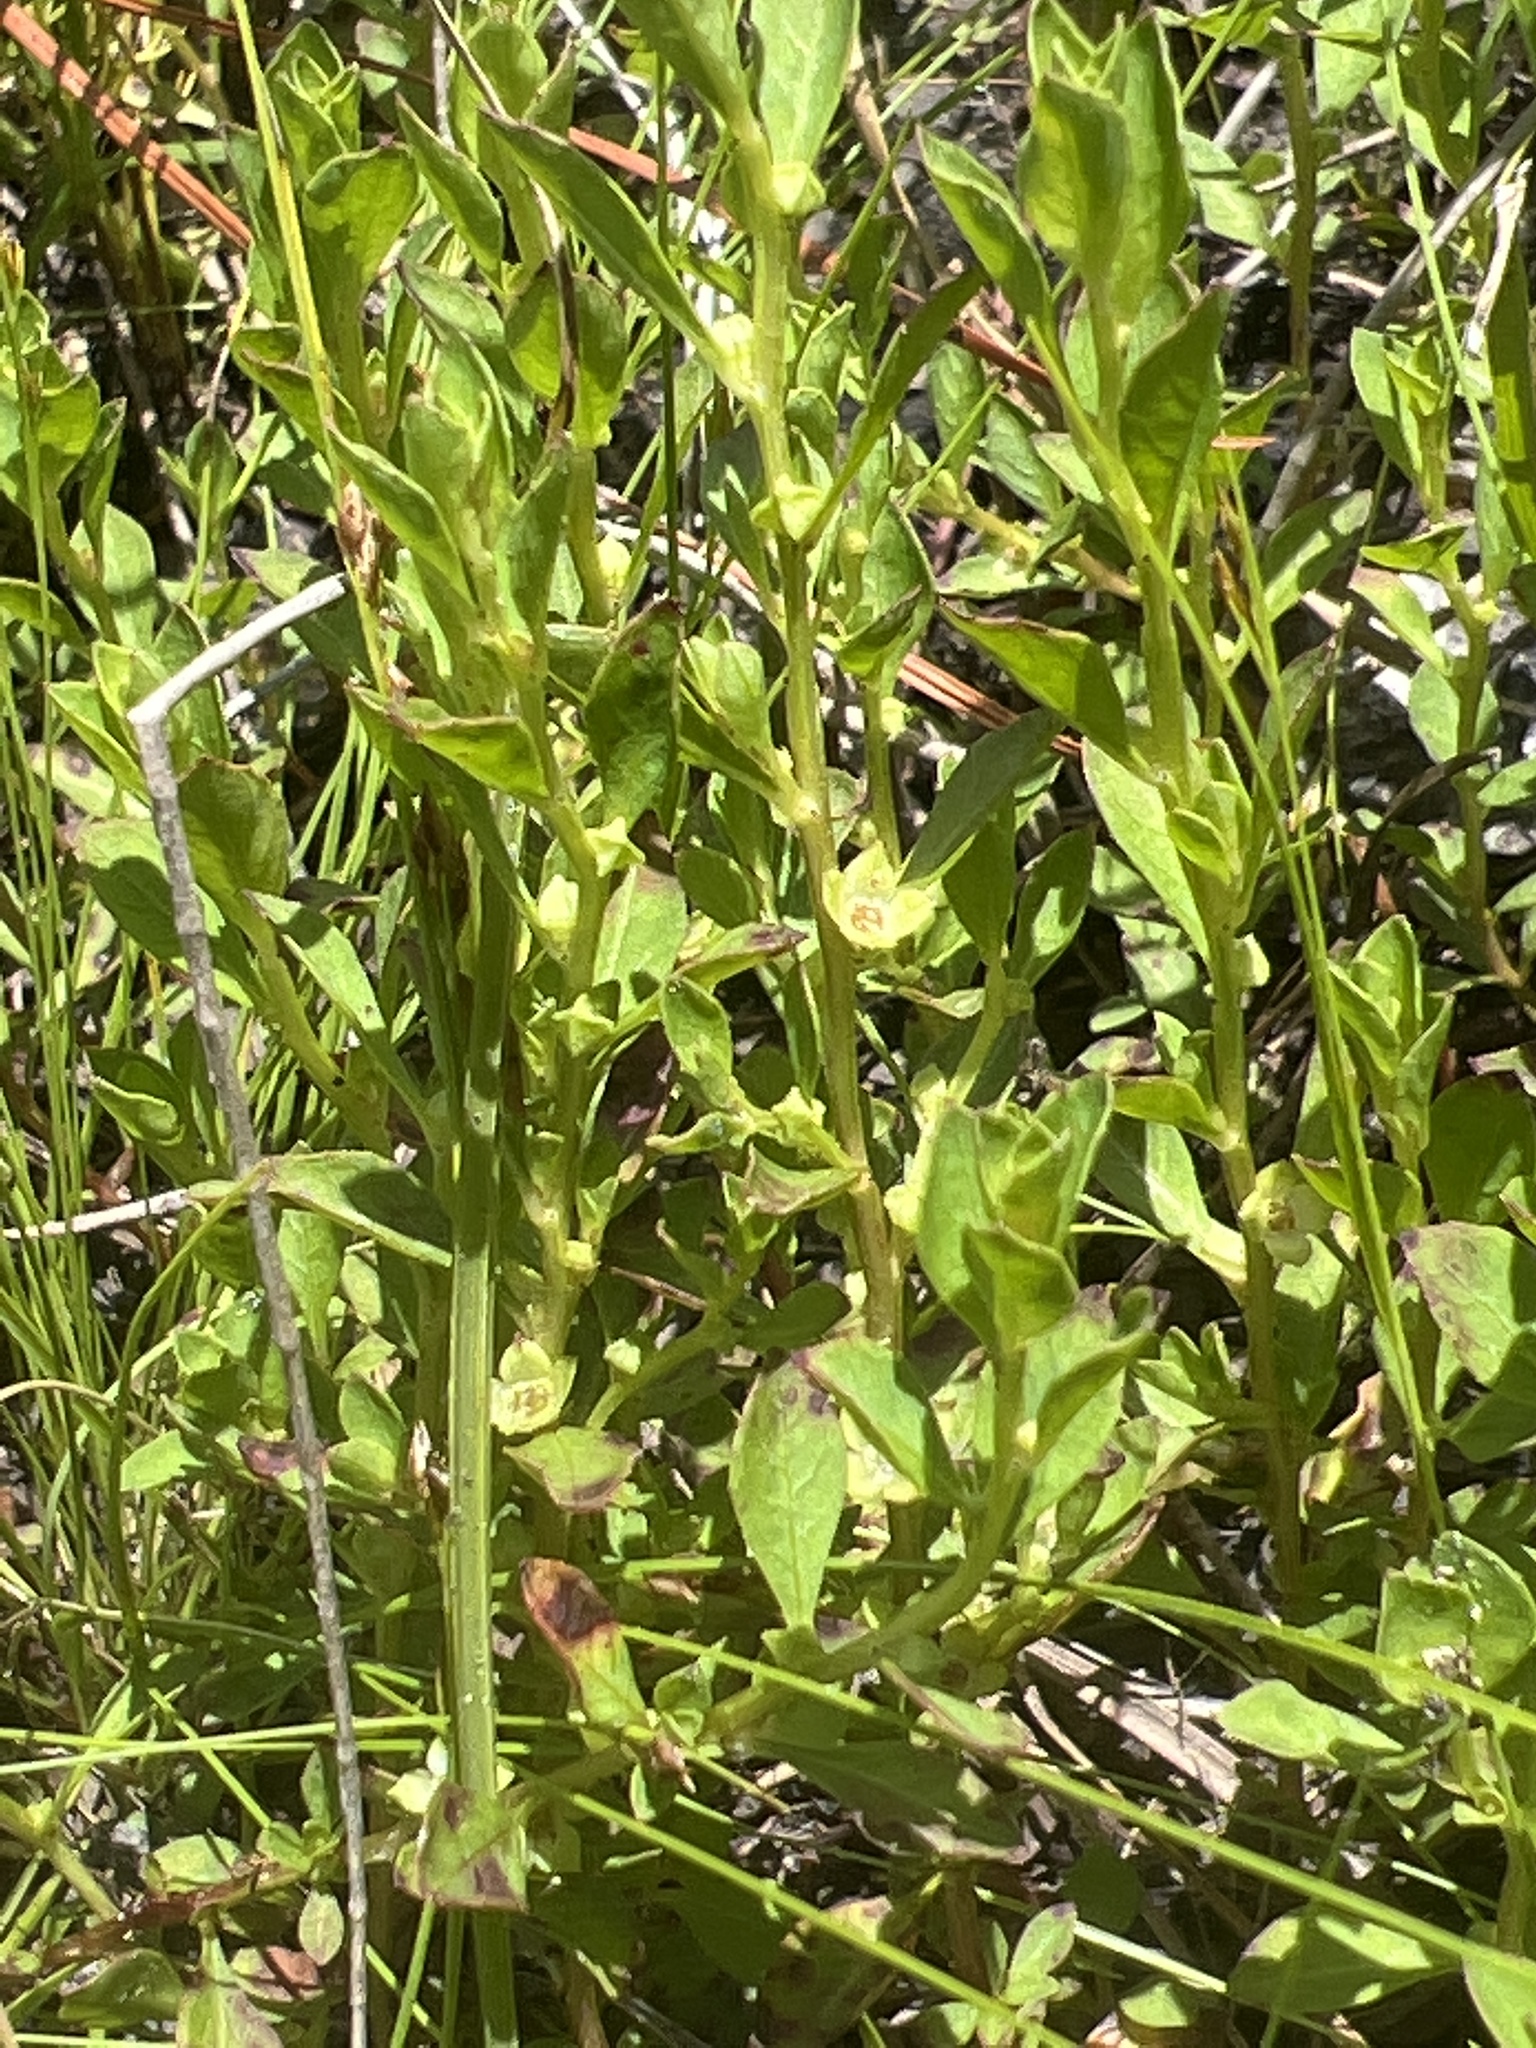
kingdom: Plantae
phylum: Tracheophyta
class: Magnoliopsida
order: Myrtales
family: Onagraceae
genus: Ludwigia
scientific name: Ludwigia microcarpa
